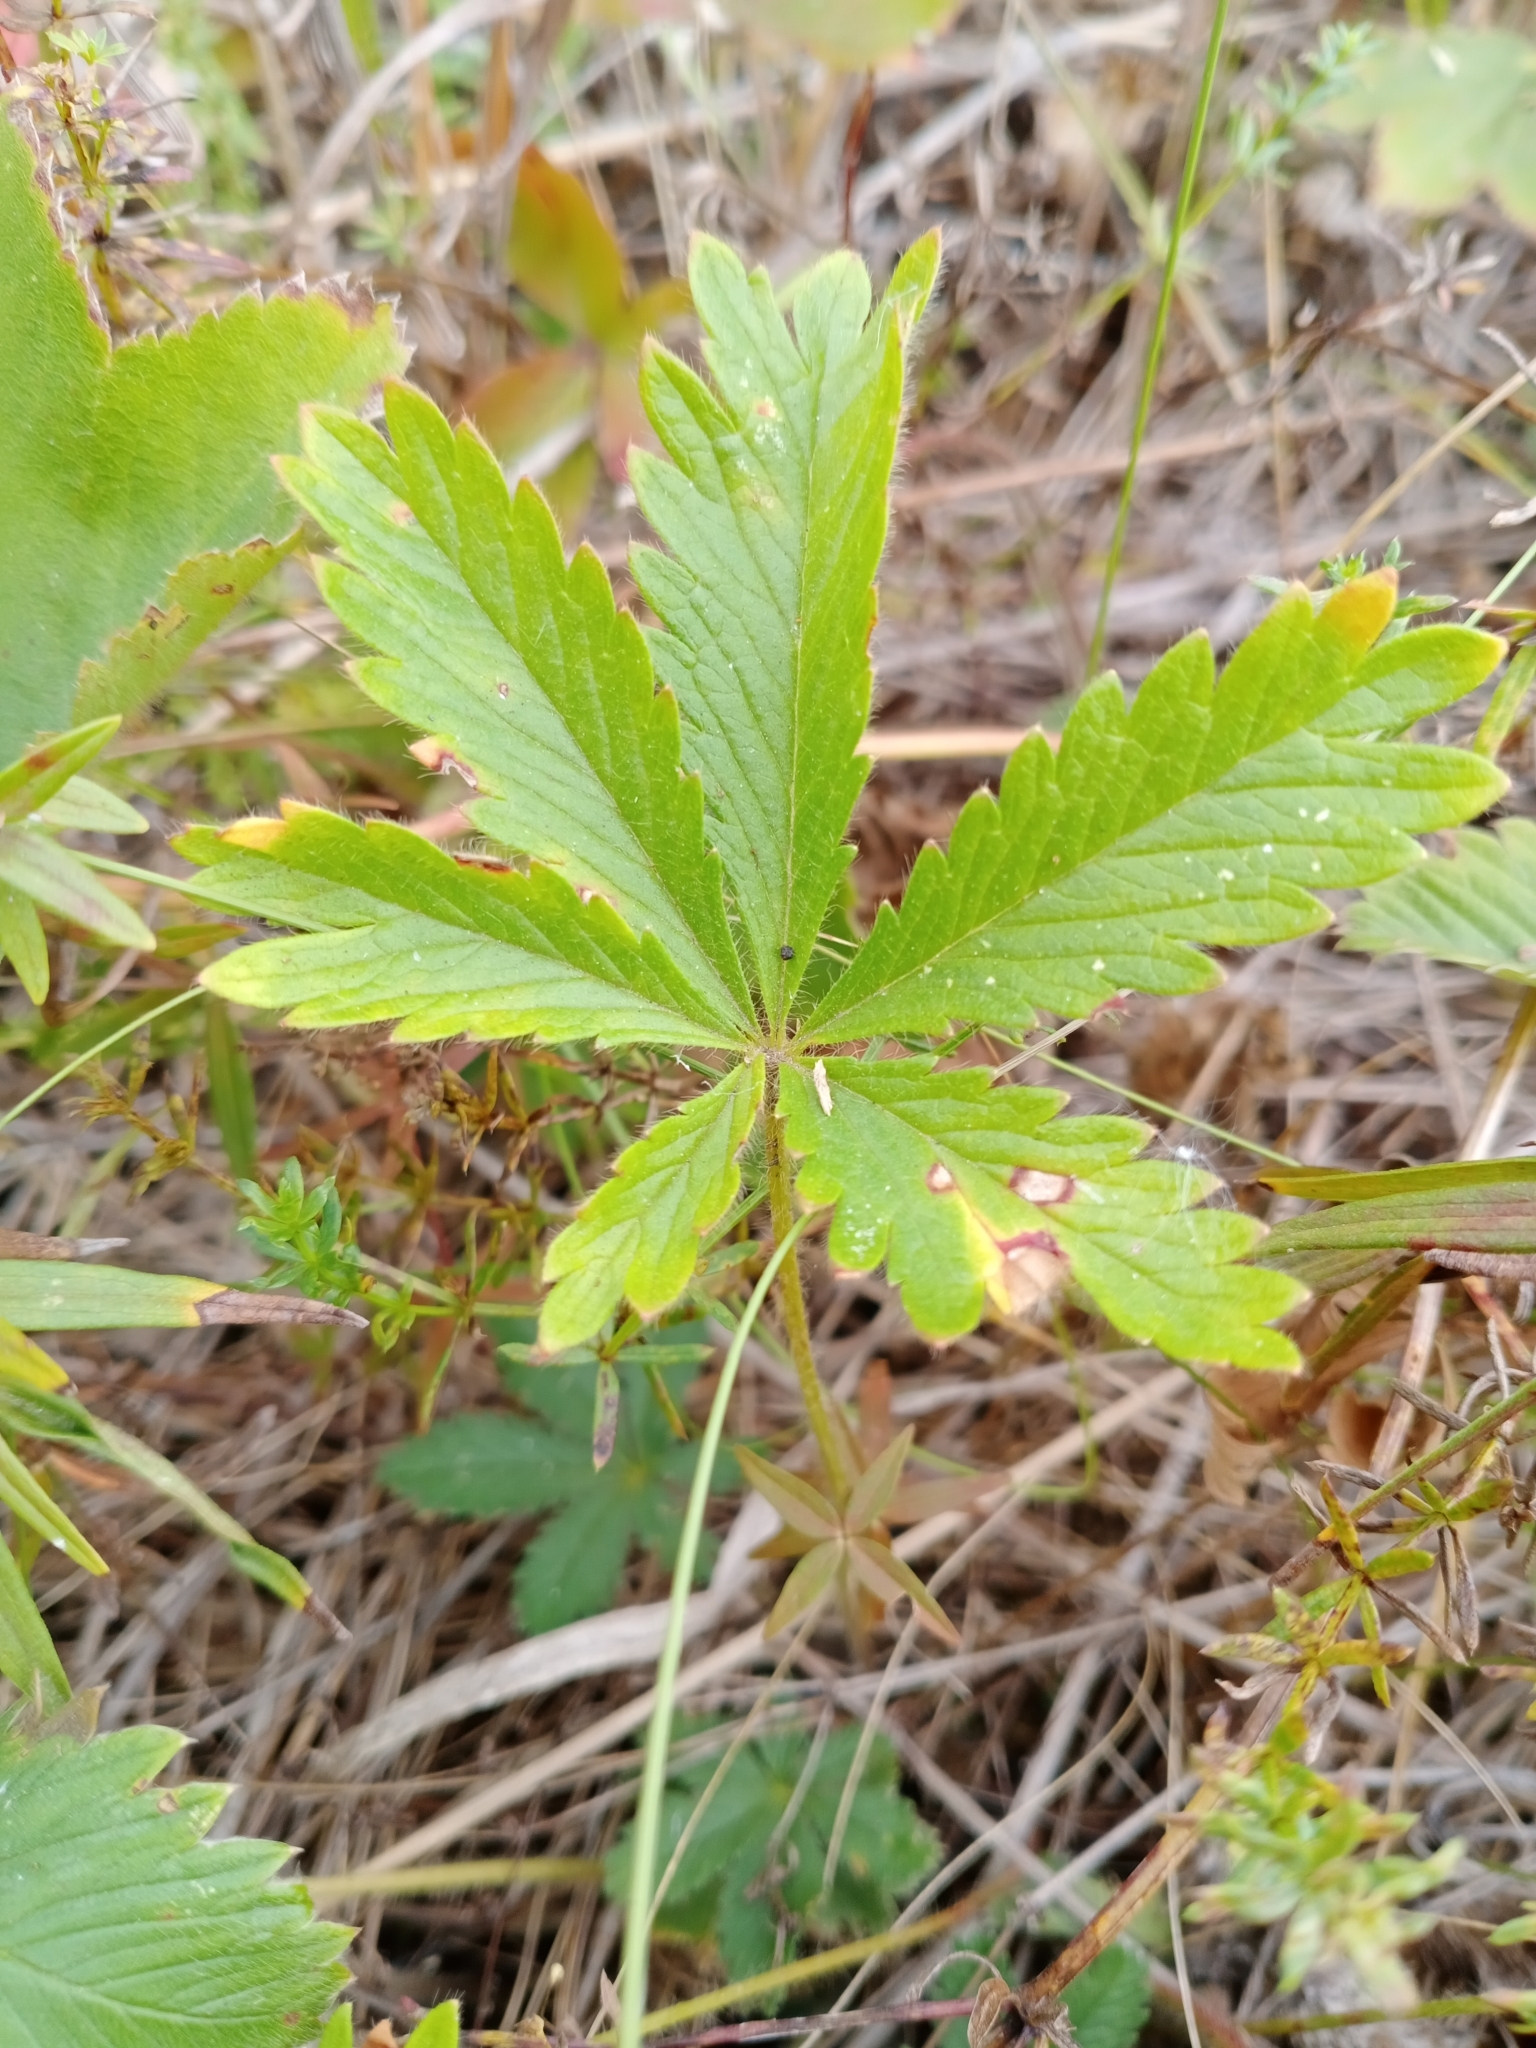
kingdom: Plantae
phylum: Tracheophyta
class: Magnoliopsida
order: Rosales
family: Rosaceae
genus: Potentilla
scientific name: Potentilla thuringiaca
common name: European cinquefoil
